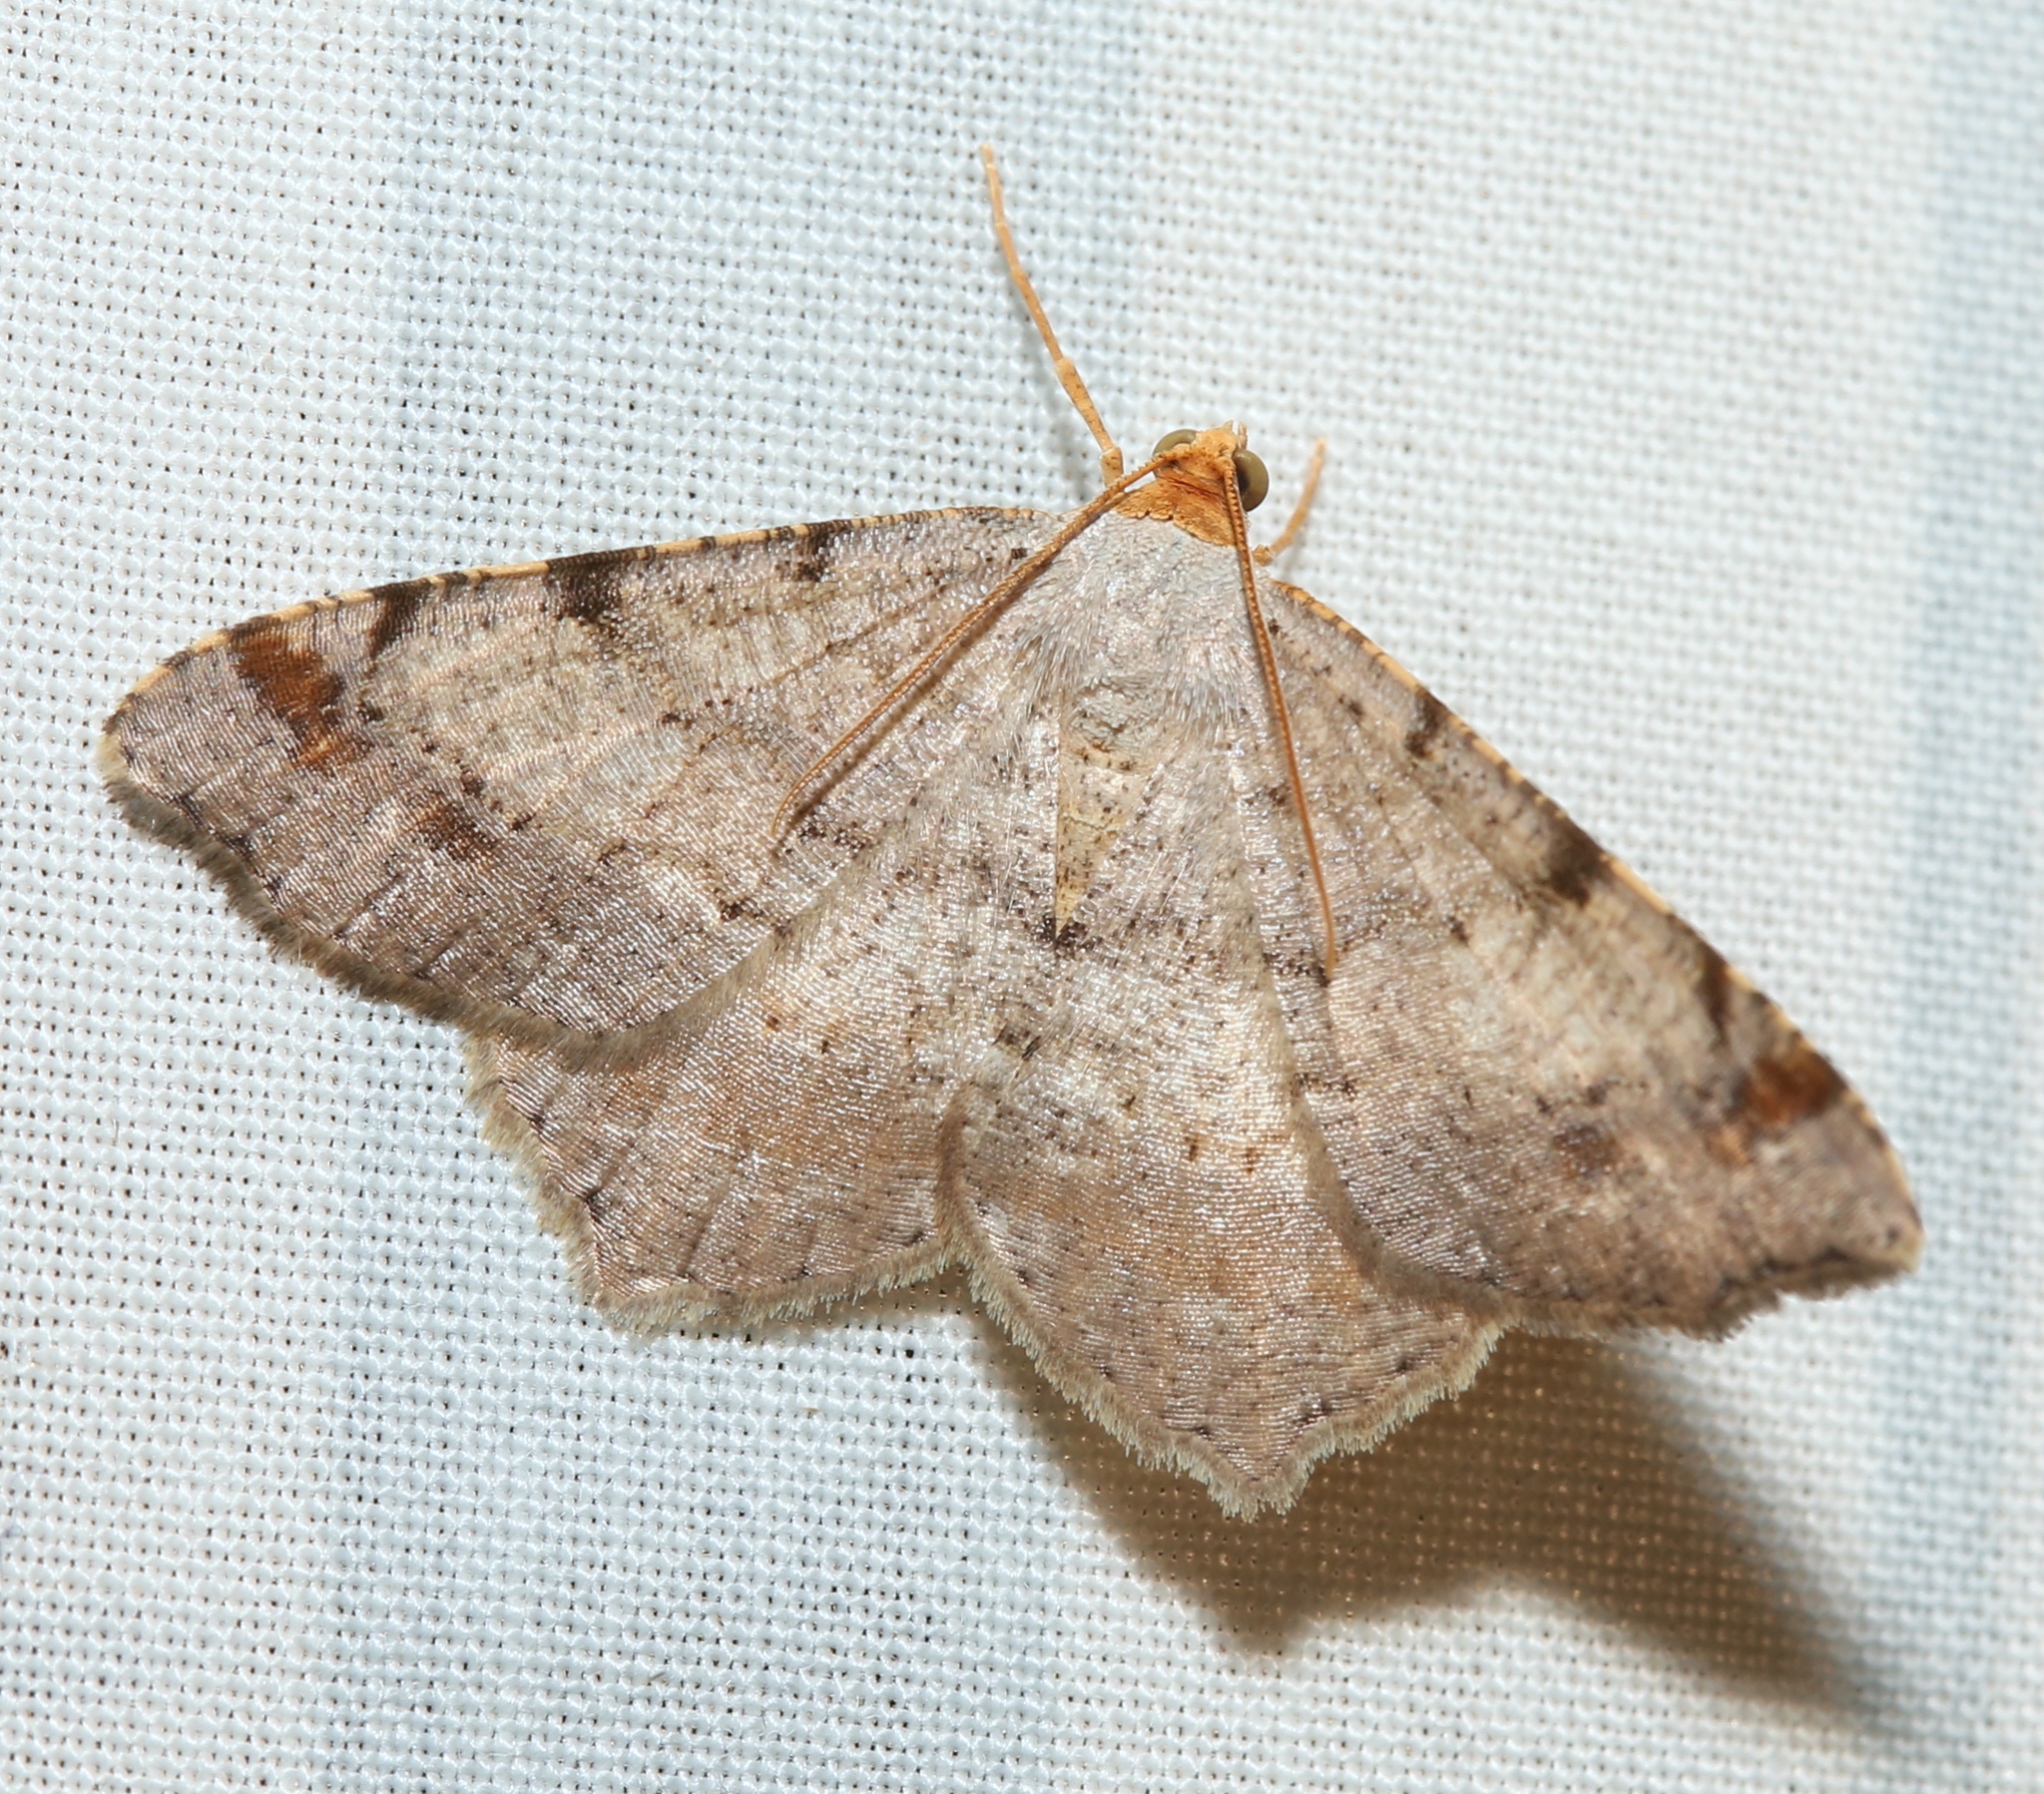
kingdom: Animalia
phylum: Arthropoda
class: Insecta
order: Lepidoptera
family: Geometridae
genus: Macaria
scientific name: Macaria bicolorata
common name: Dingy angle
